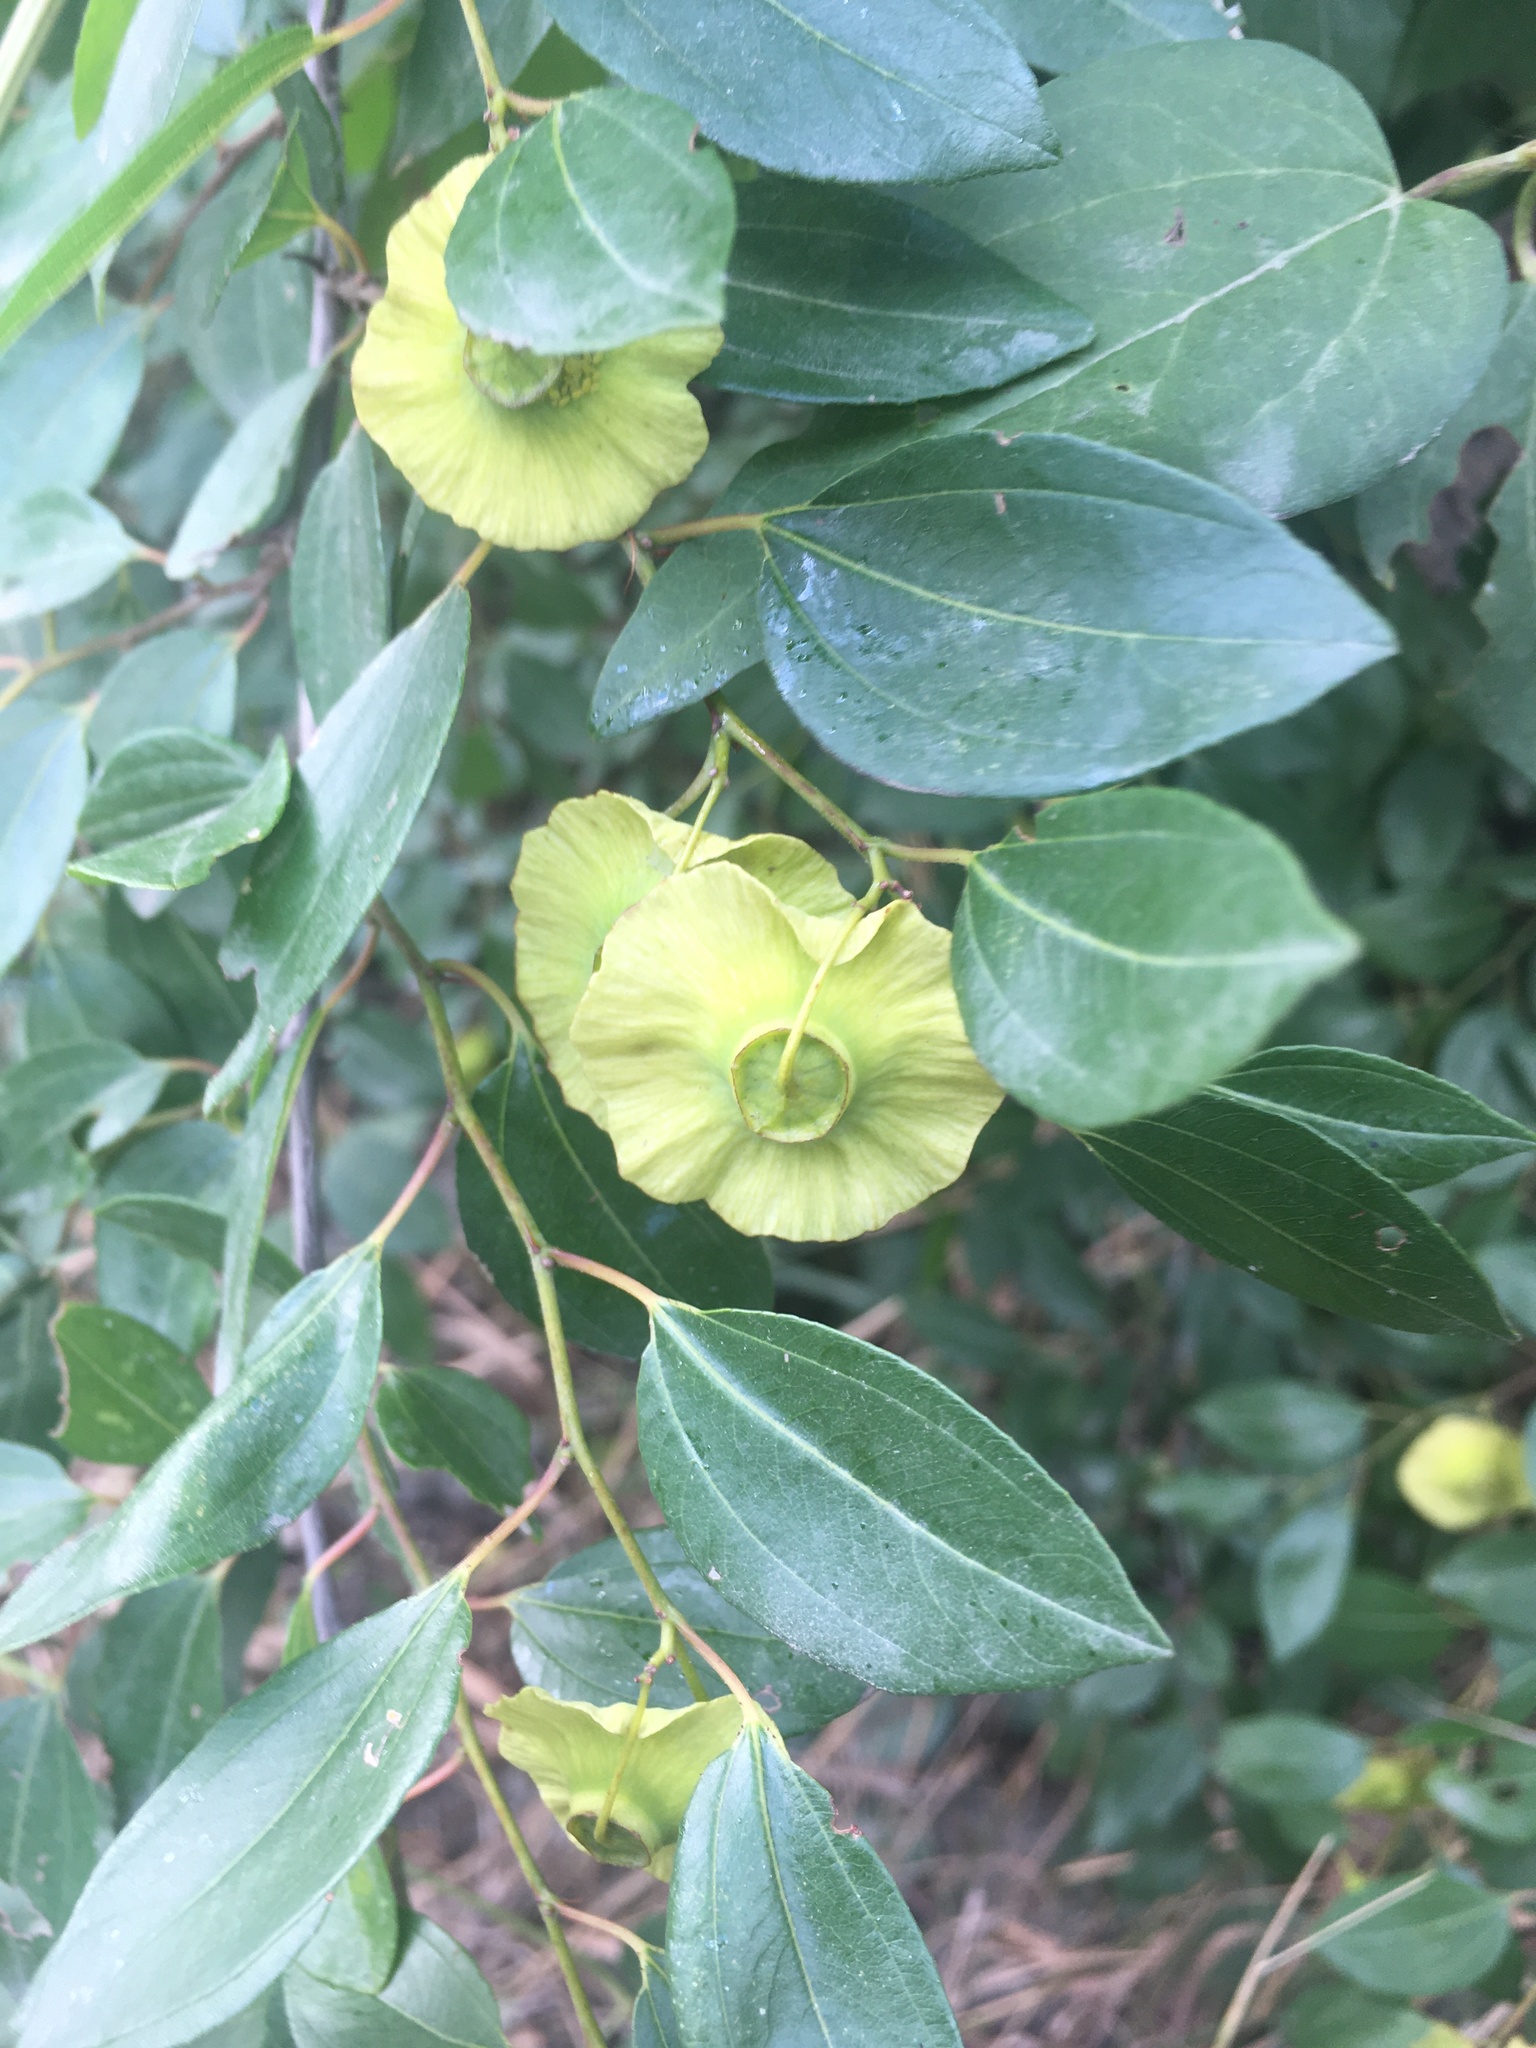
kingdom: Plantae
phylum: Tracheophyta
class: Magnoliopsida
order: Rosales
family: Rhamnaceae
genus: Paliurus
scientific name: Paliurus spina-christi
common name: Jeruselem thorn
